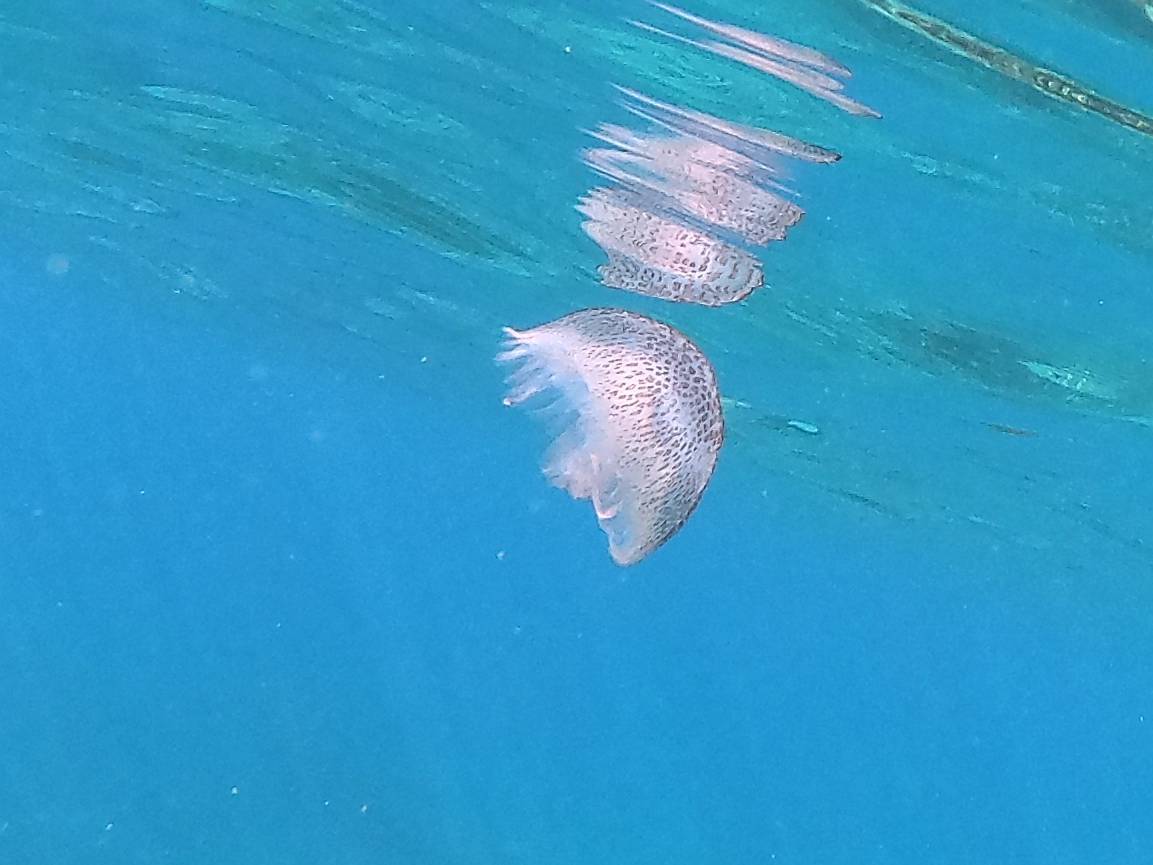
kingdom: Animalia
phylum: Cnidaria
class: Scyphozoa
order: Semaeostomeae
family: Pelagiidae
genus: Pelagia
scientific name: Pelagia noctiluca
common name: Mauve stinger
